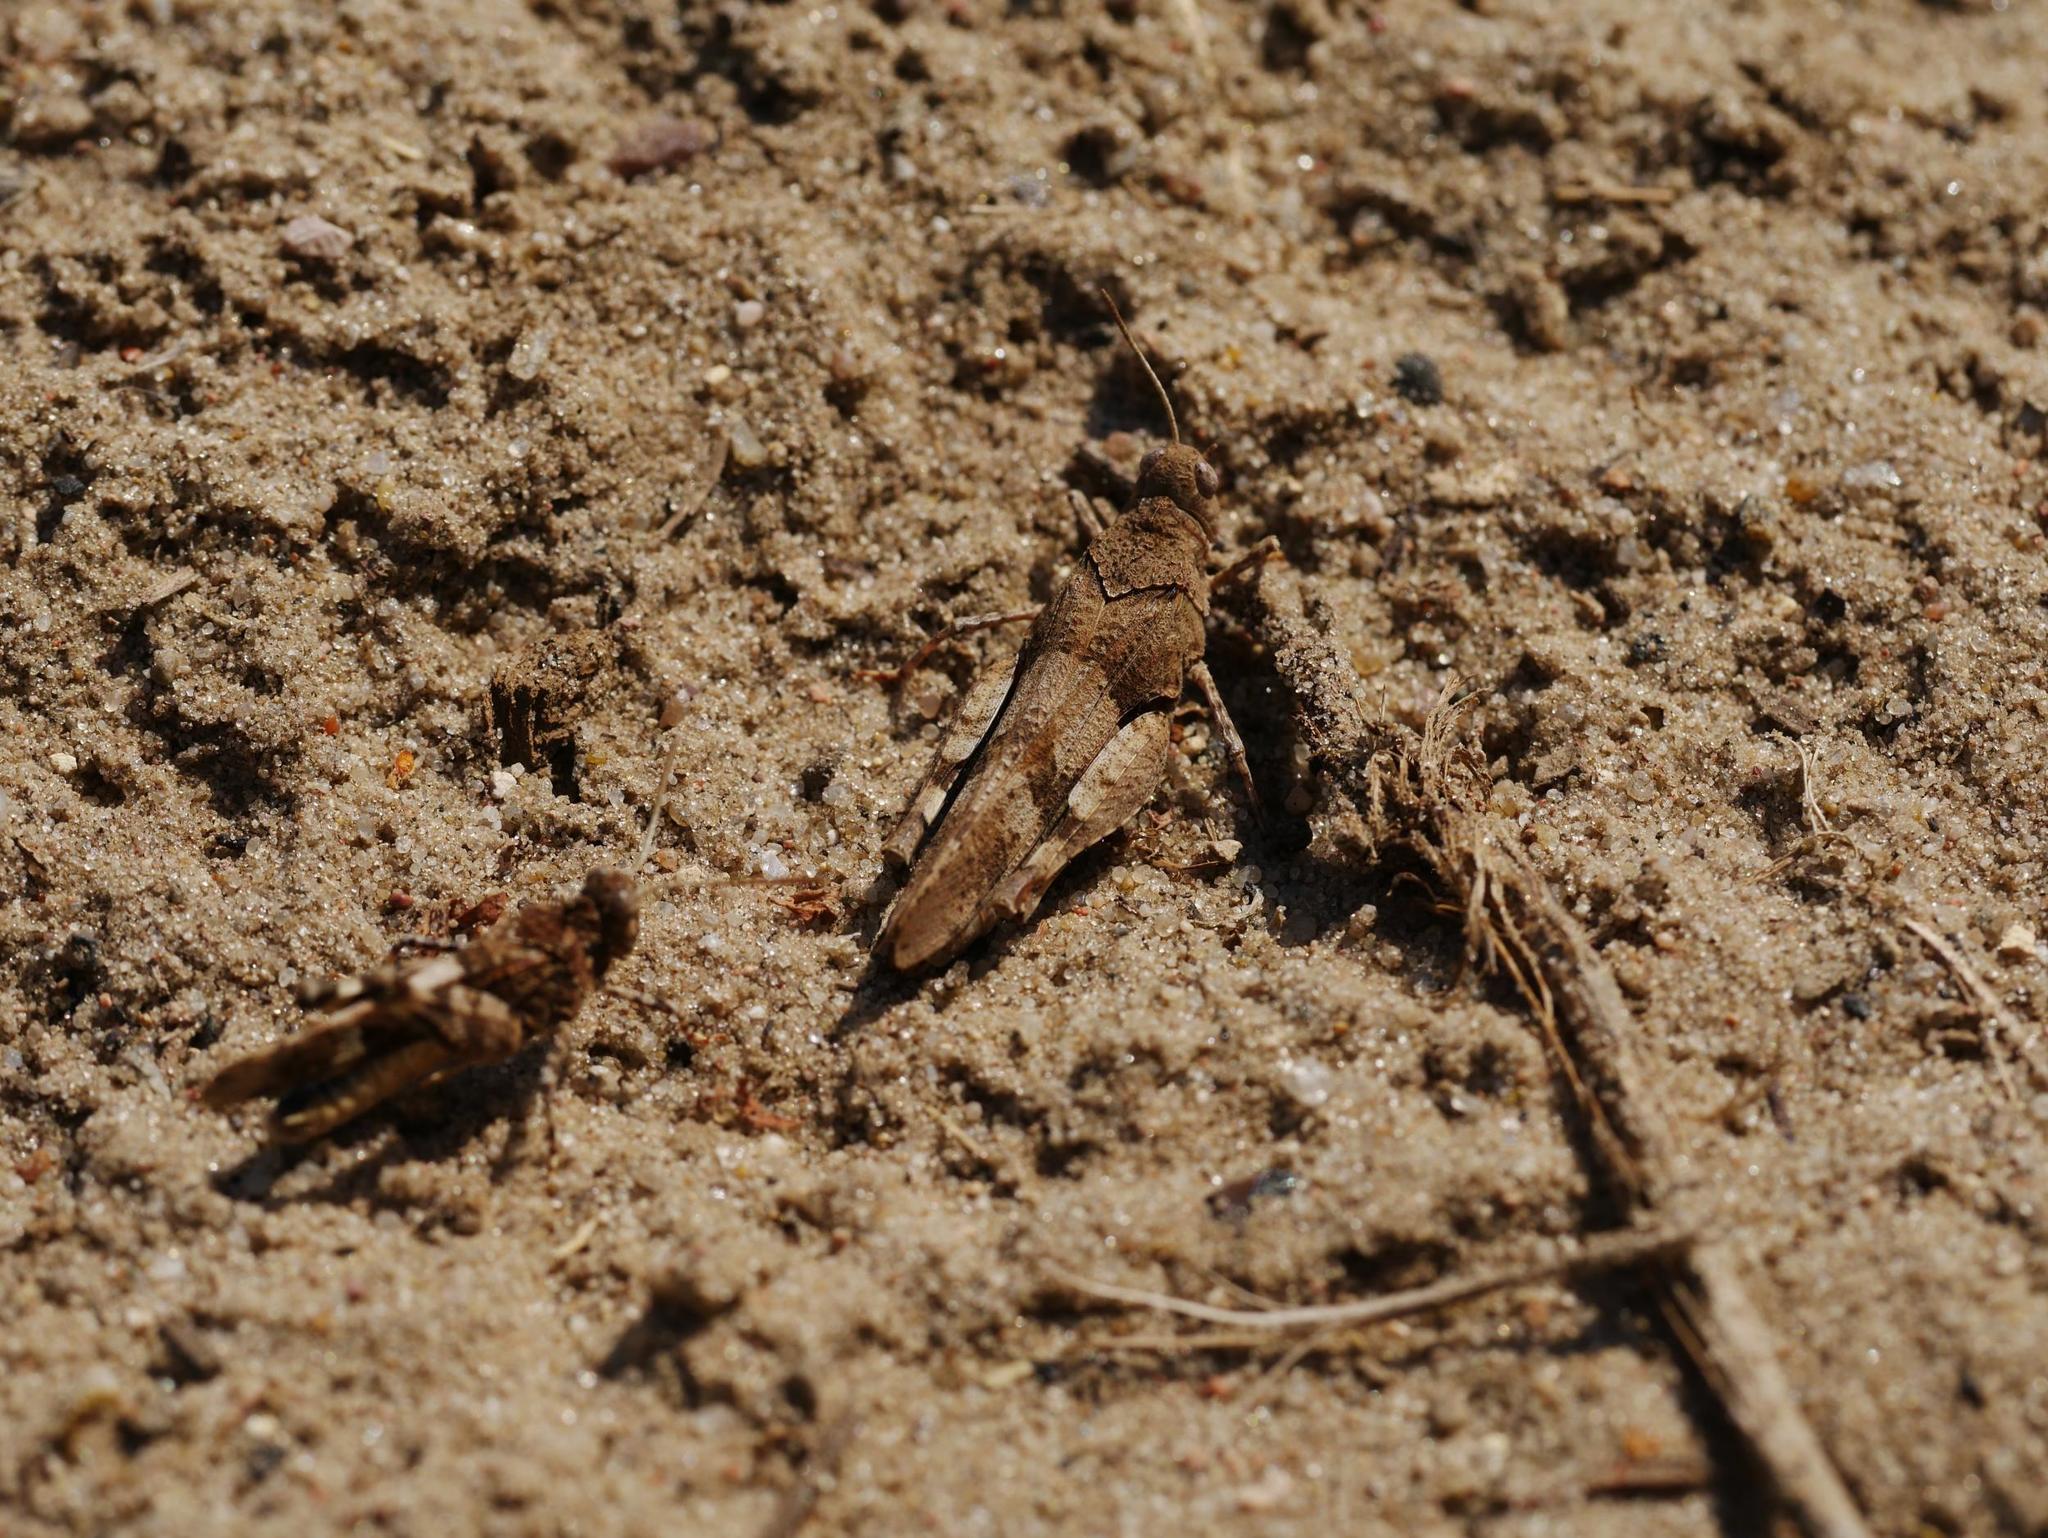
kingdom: Animalia
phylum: Arthropoda
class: Insecta
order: Orthoptera
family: Acrididae
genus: Oedipoda
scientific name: Oedipoda caerulescens
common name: Blue-winged grasshopper
